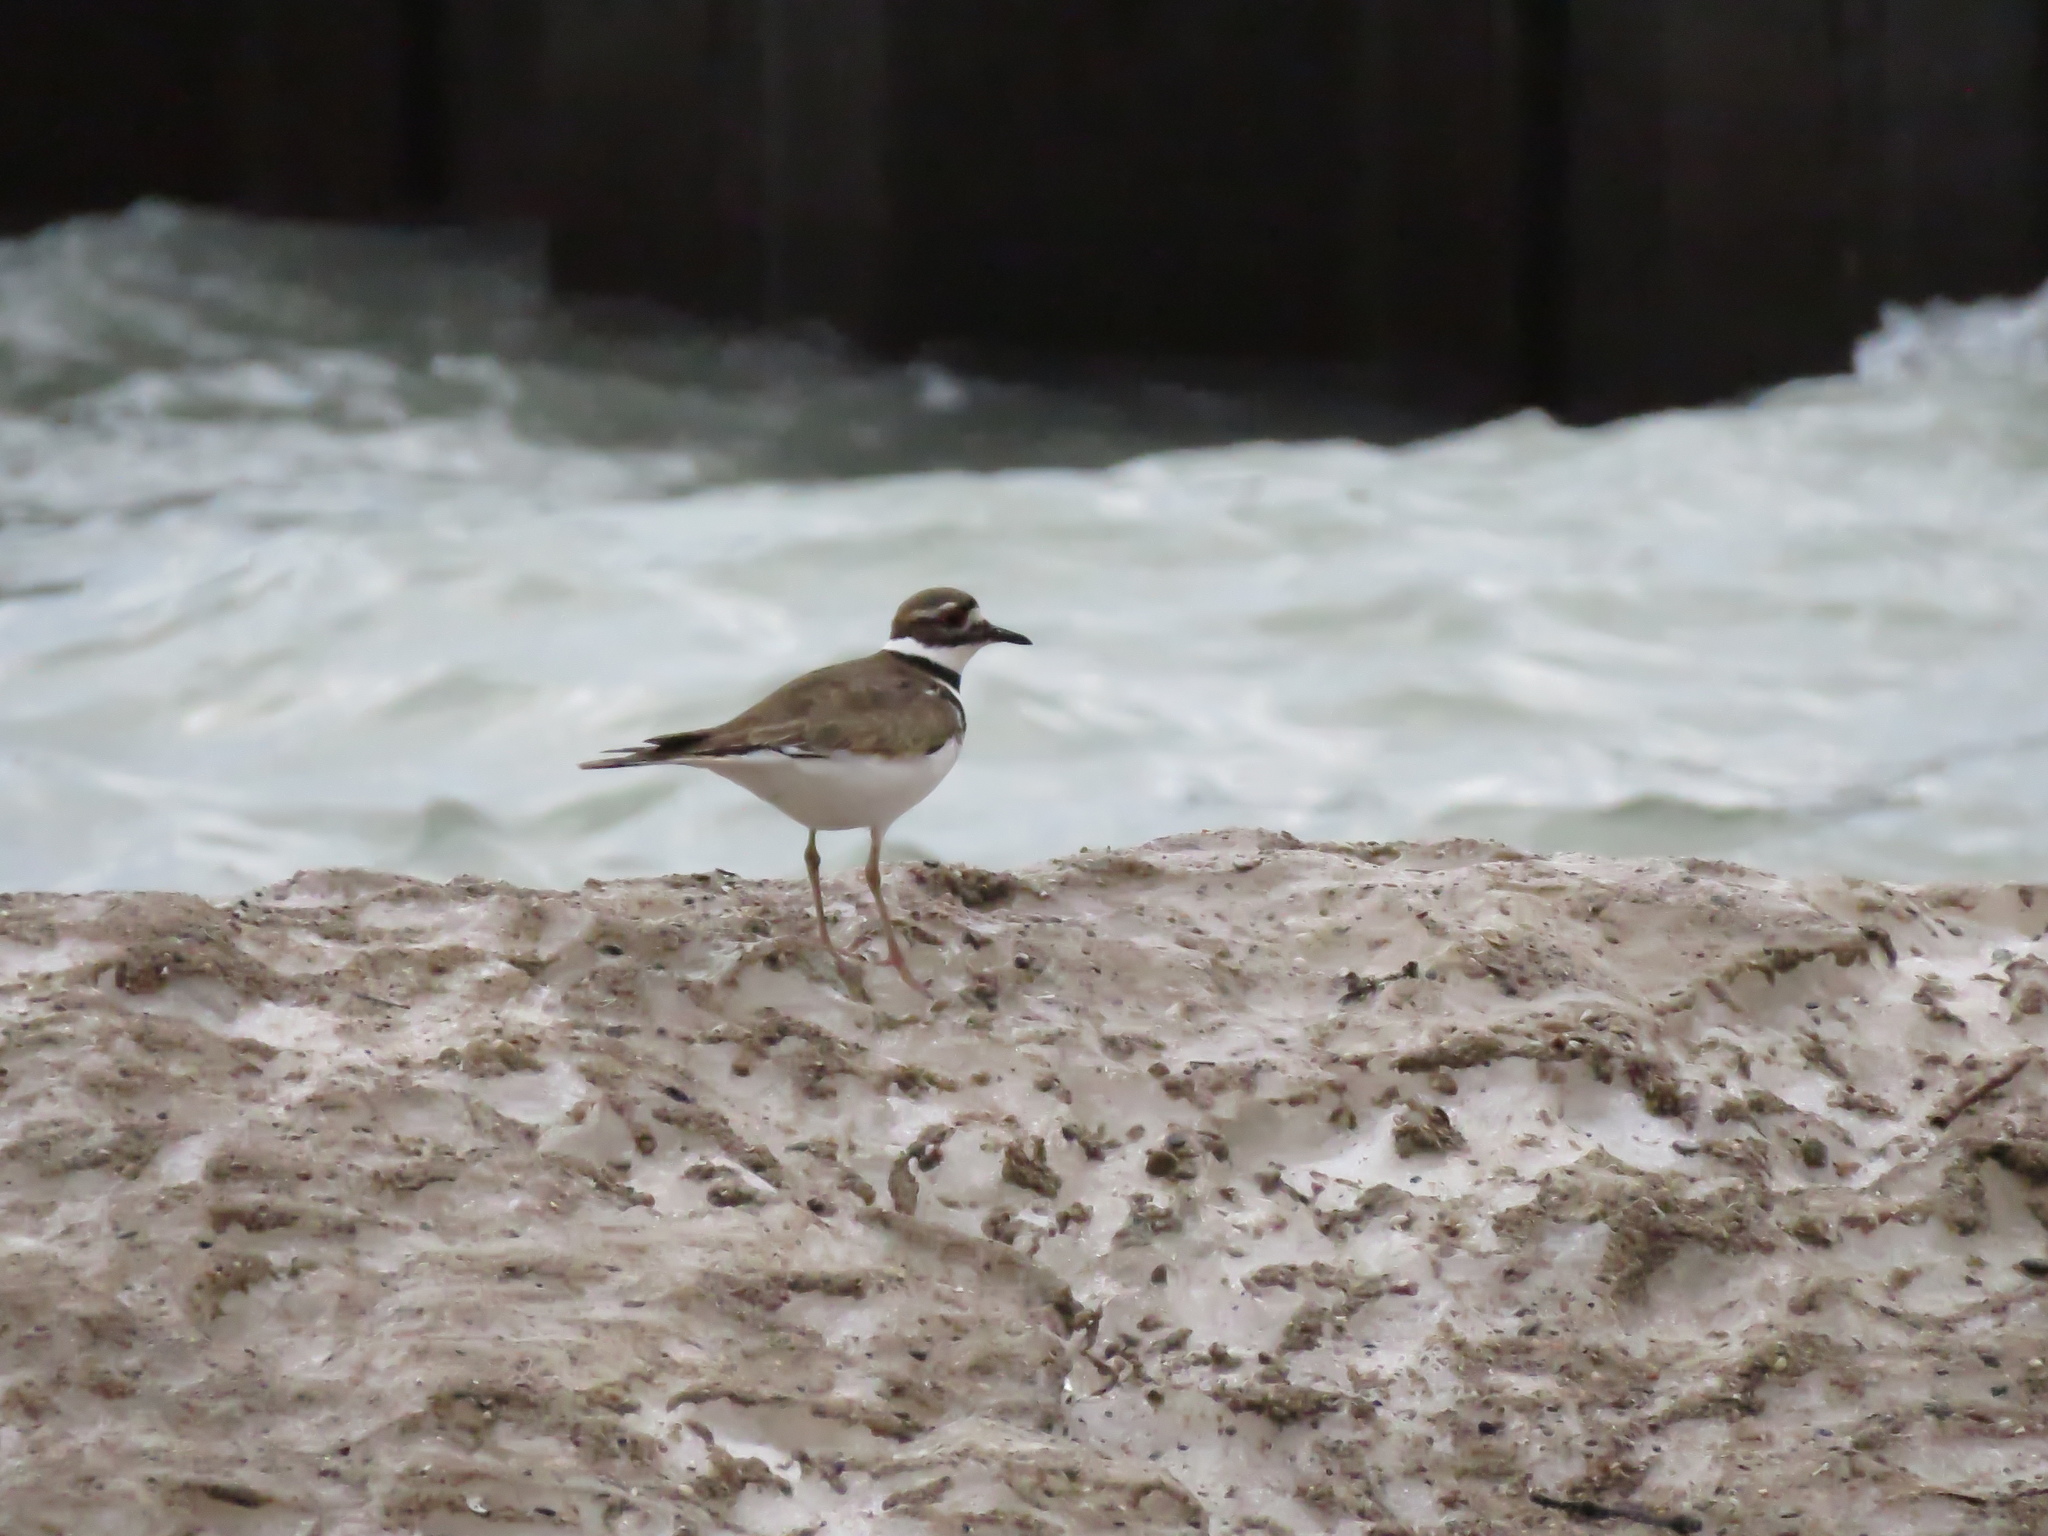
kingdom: Animalia
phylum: Chordata
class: Aves
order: Charadriiformes
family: Charadriidae
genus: Charadrius
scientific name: Charadrius vociferus
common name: Killdeer
